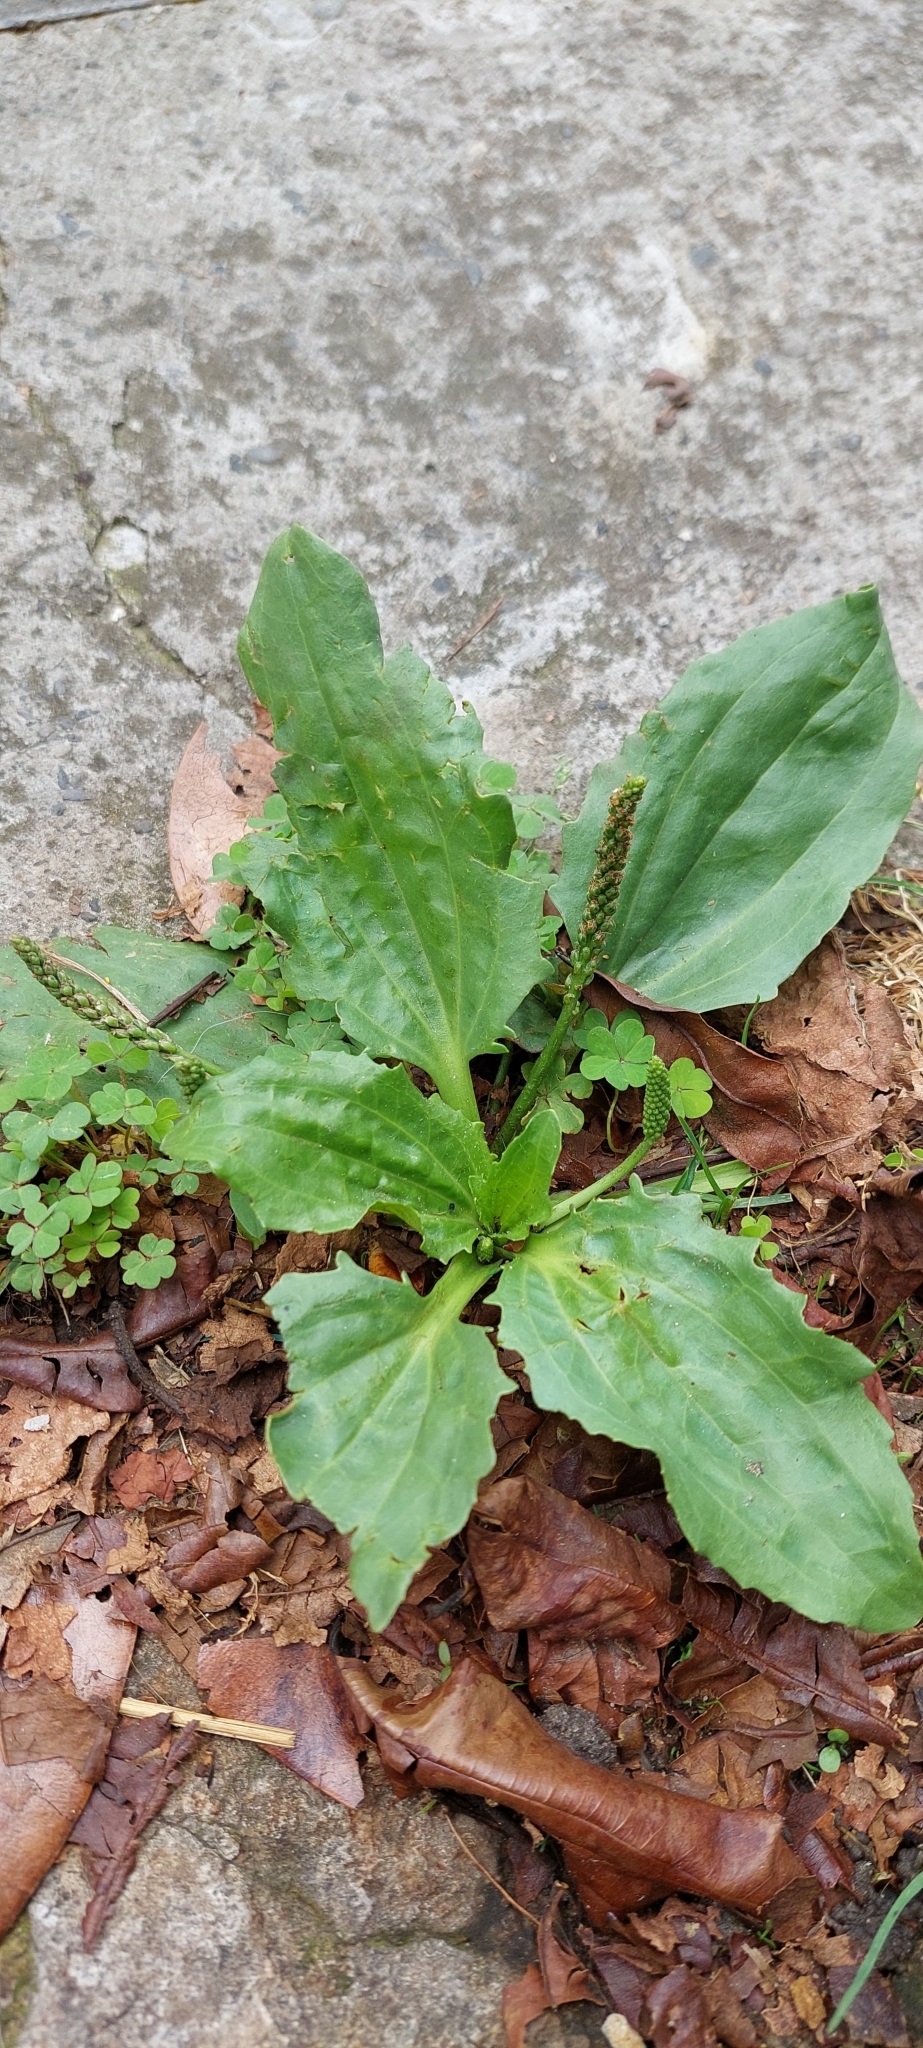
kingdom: Plantae
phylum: Tracheophyta
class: Magnoliopsida
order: Lamiales
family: Plantaginaceae
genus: Plantago
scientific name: Plantago major
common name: Common plantain
